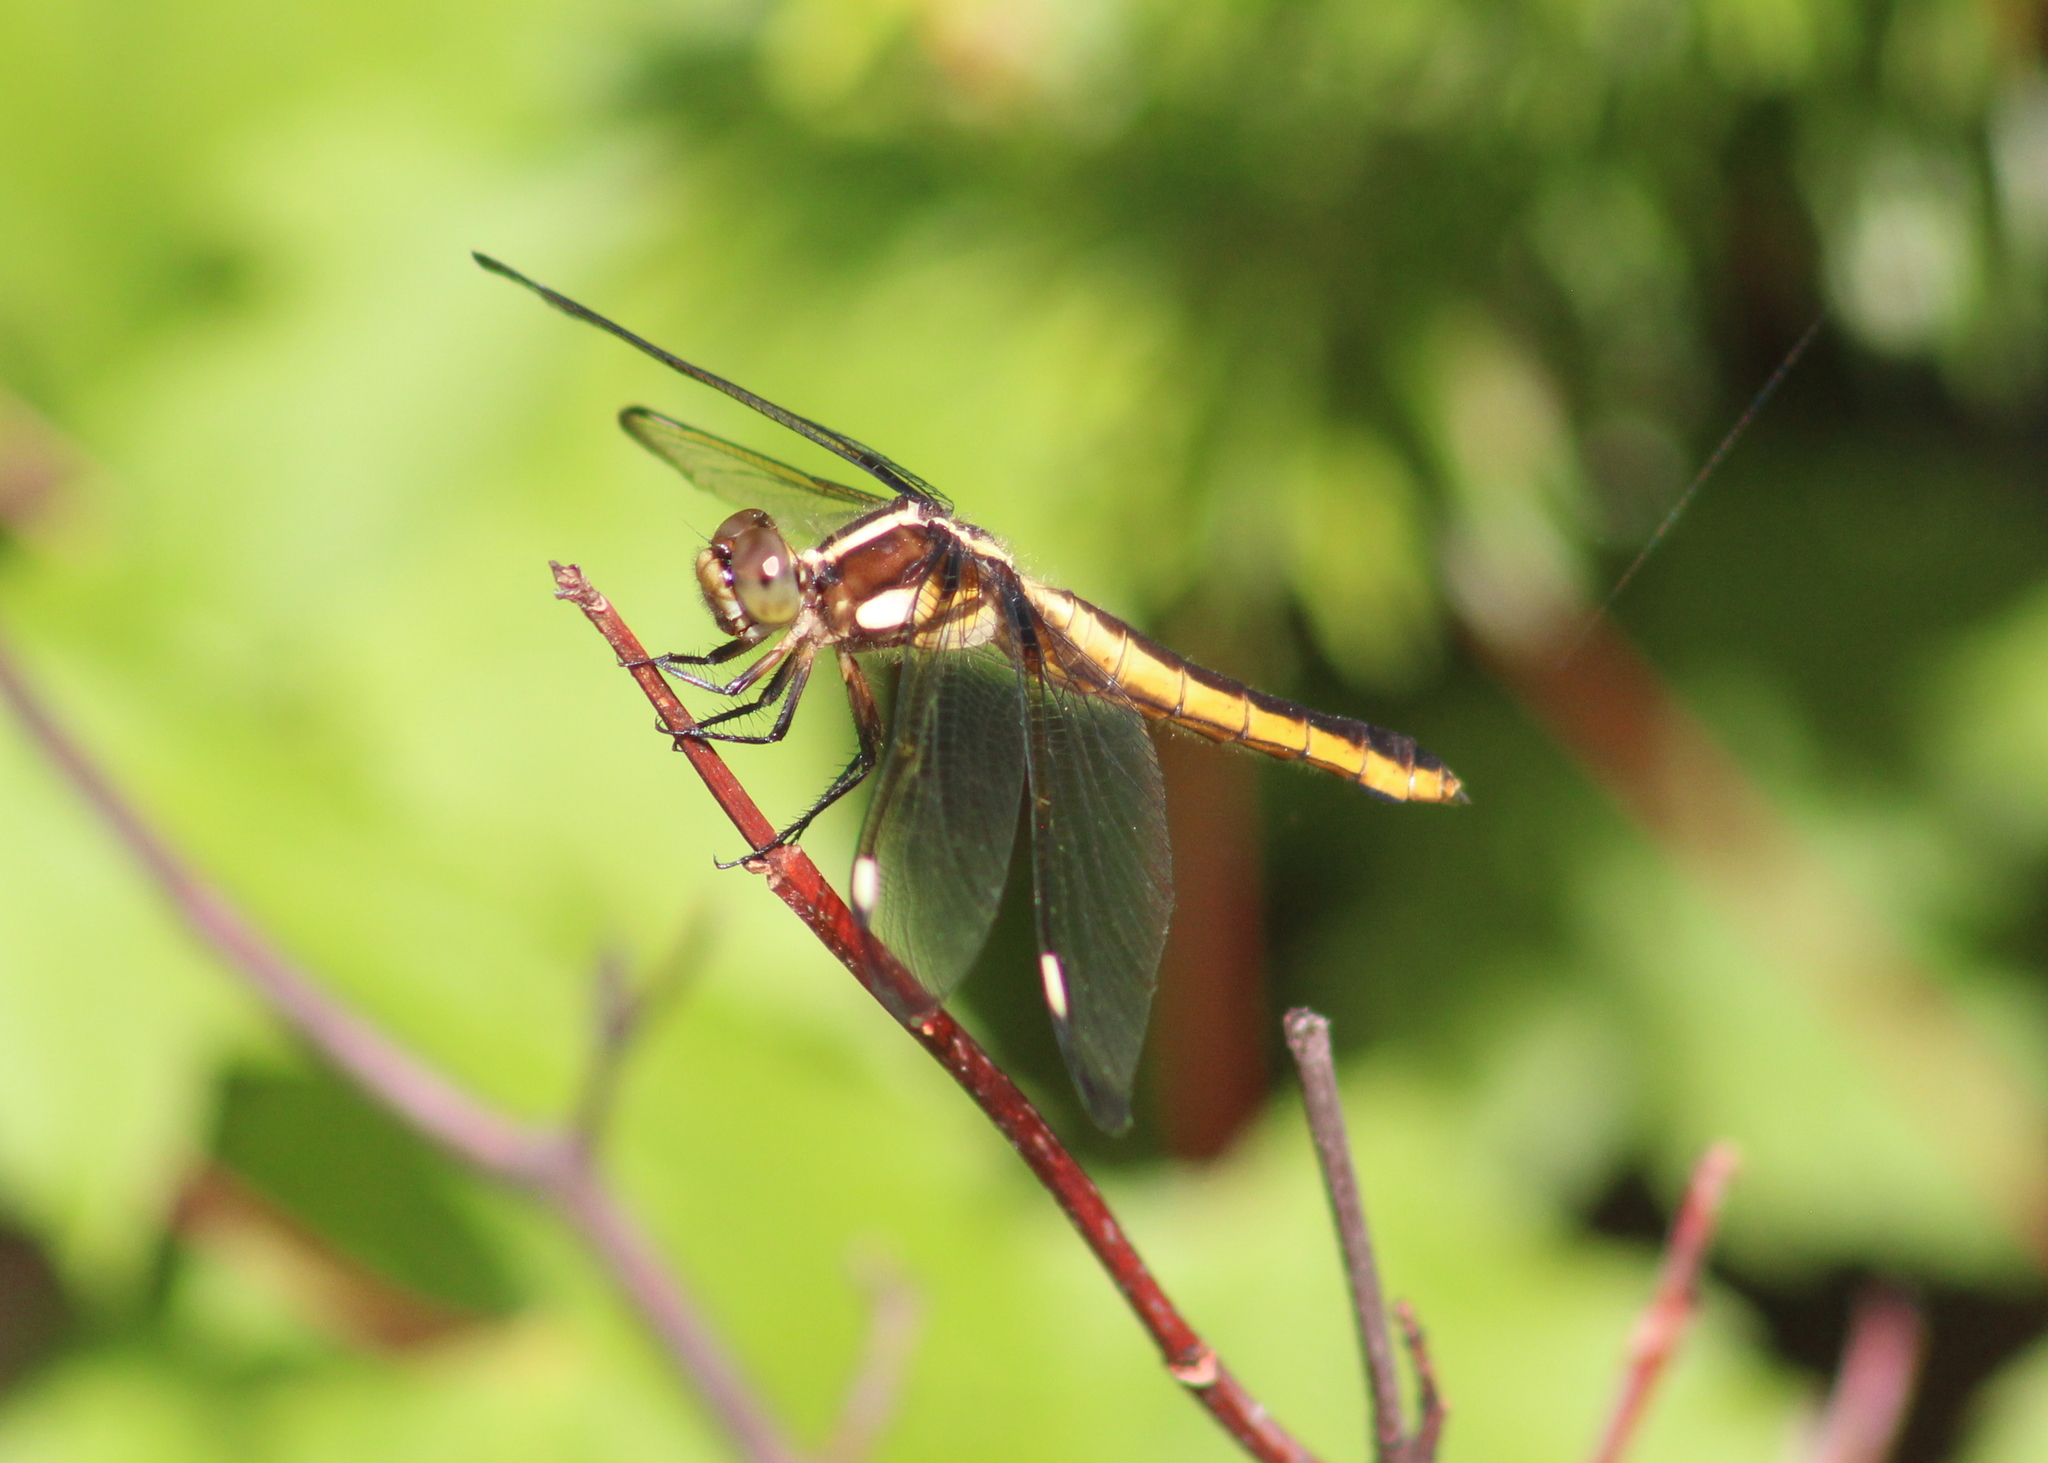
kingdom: Animalia
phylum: Arthropoda
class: Insecta
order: Odonata
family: Libellulidae
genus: Libellula
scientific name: Libellula cyanea
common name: Spangled skimmer
